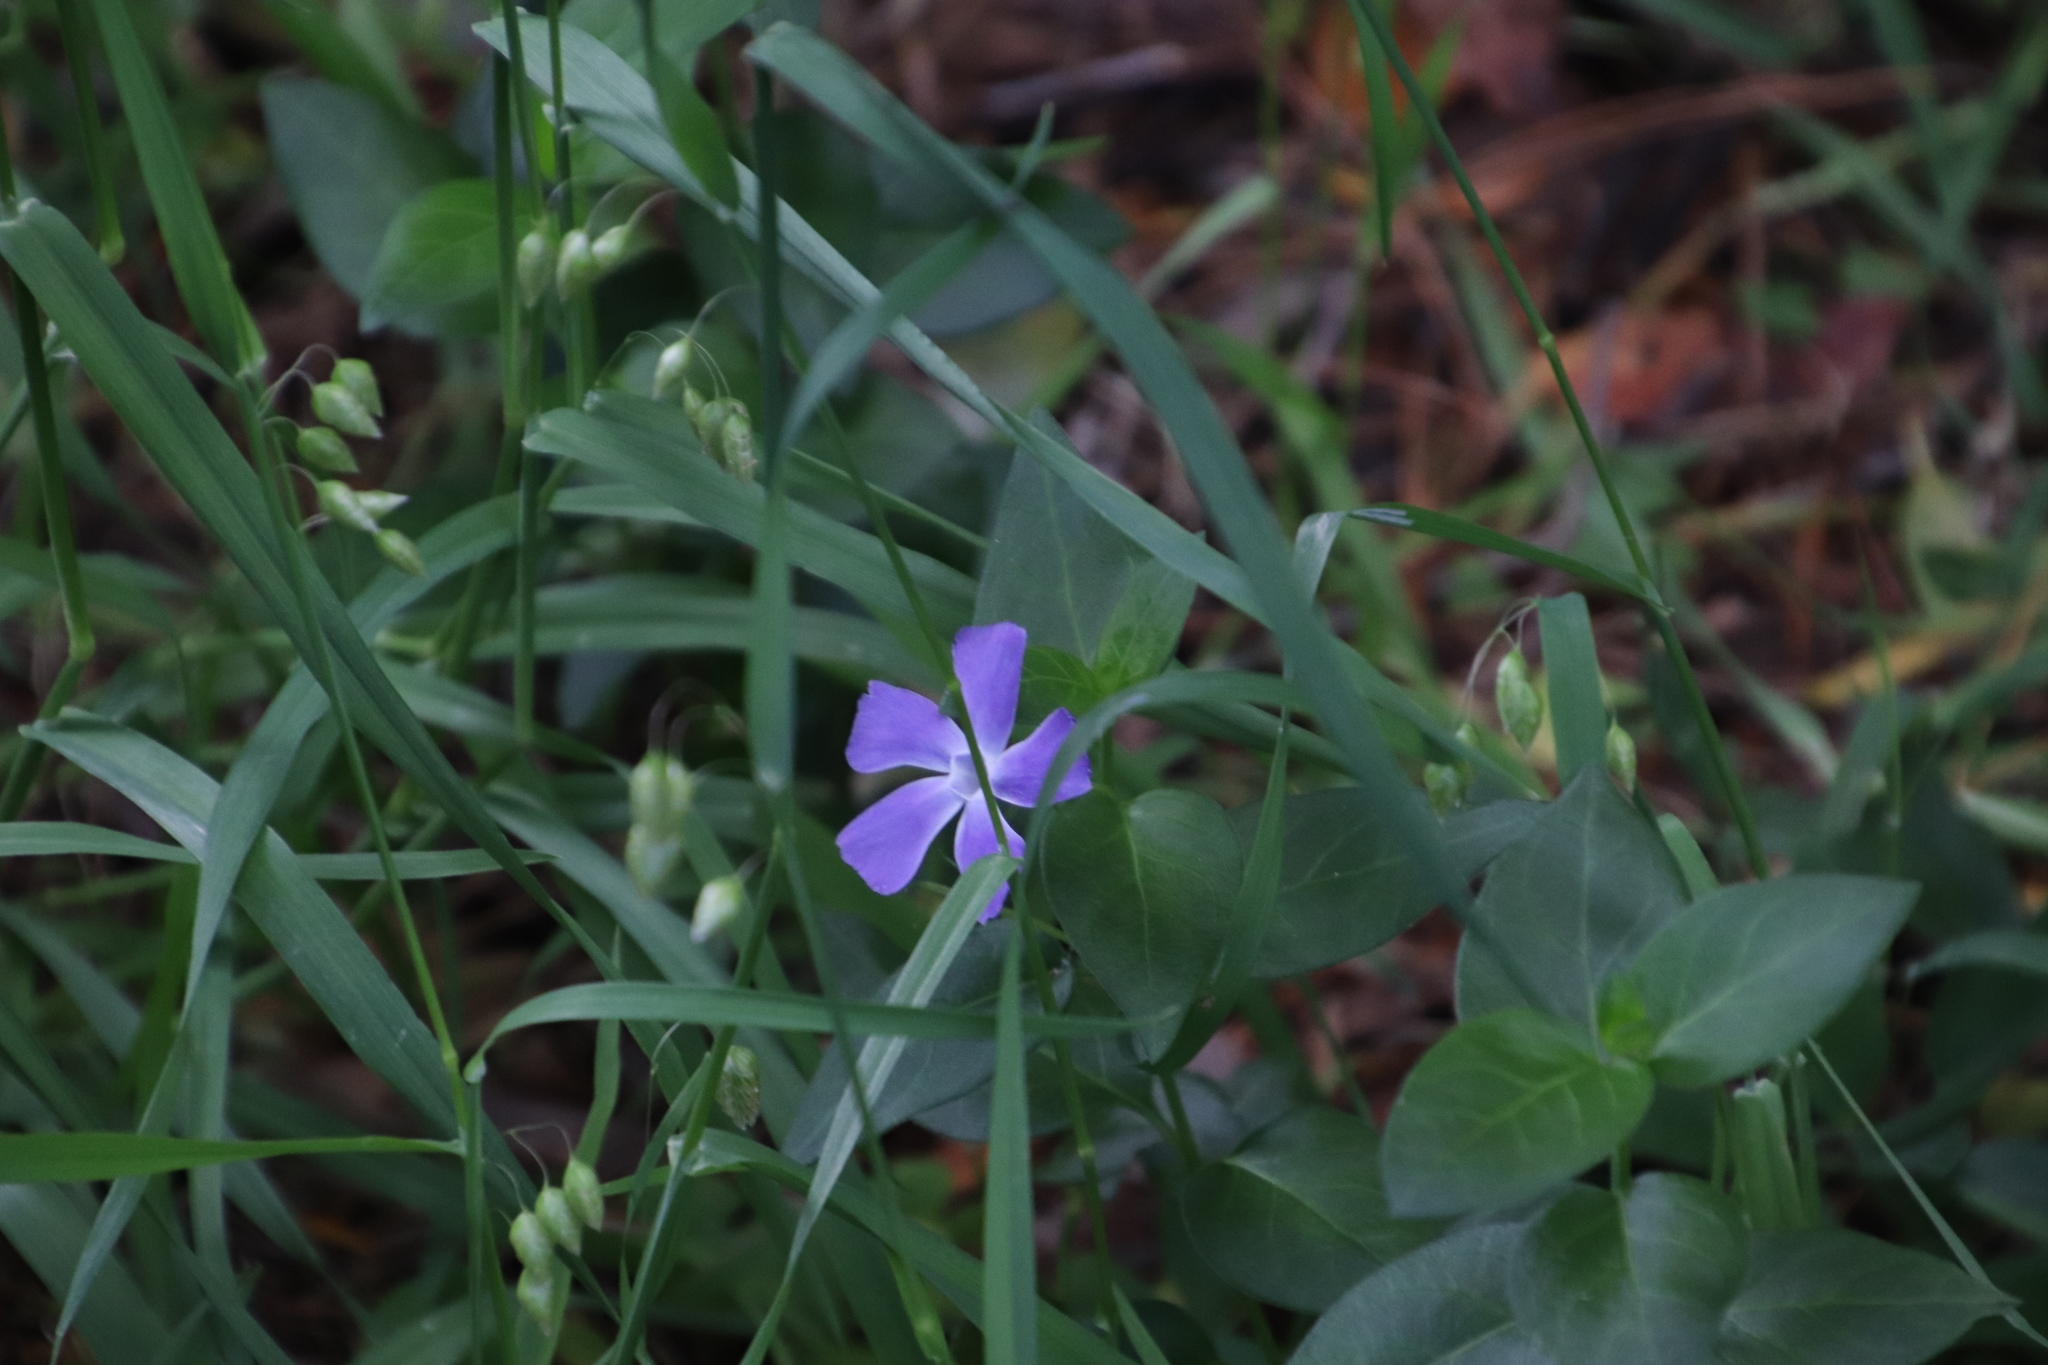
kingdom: Plantae
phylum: Tracheophyta
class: Magnoliopsida
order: Gentianales
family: Apocynaceae
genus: Vinca
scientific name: Vinca major
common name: Greater periwinkle
